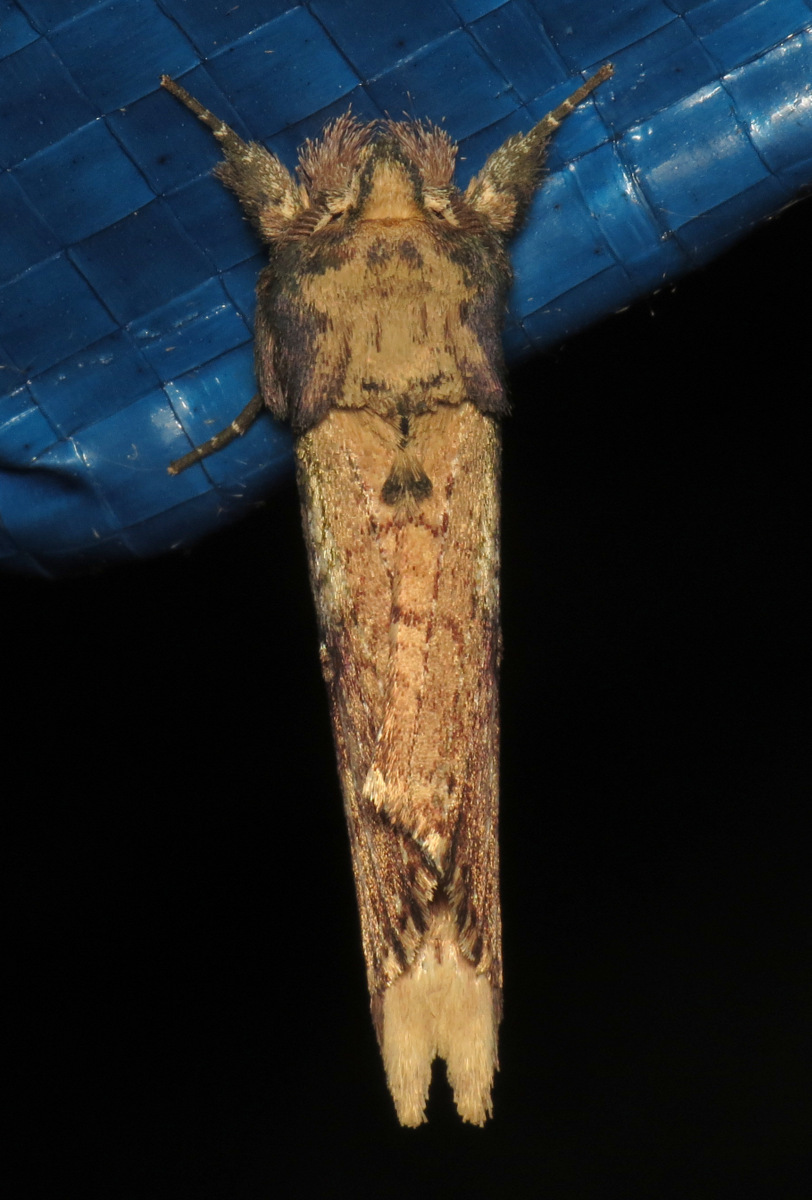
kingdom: Animalia
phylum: Arthropoda
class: Insecta
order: Lepidoptera
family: Notodontidae
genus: Schizura
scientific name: Schizura ipomaeae
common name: Morning-glory prominent
